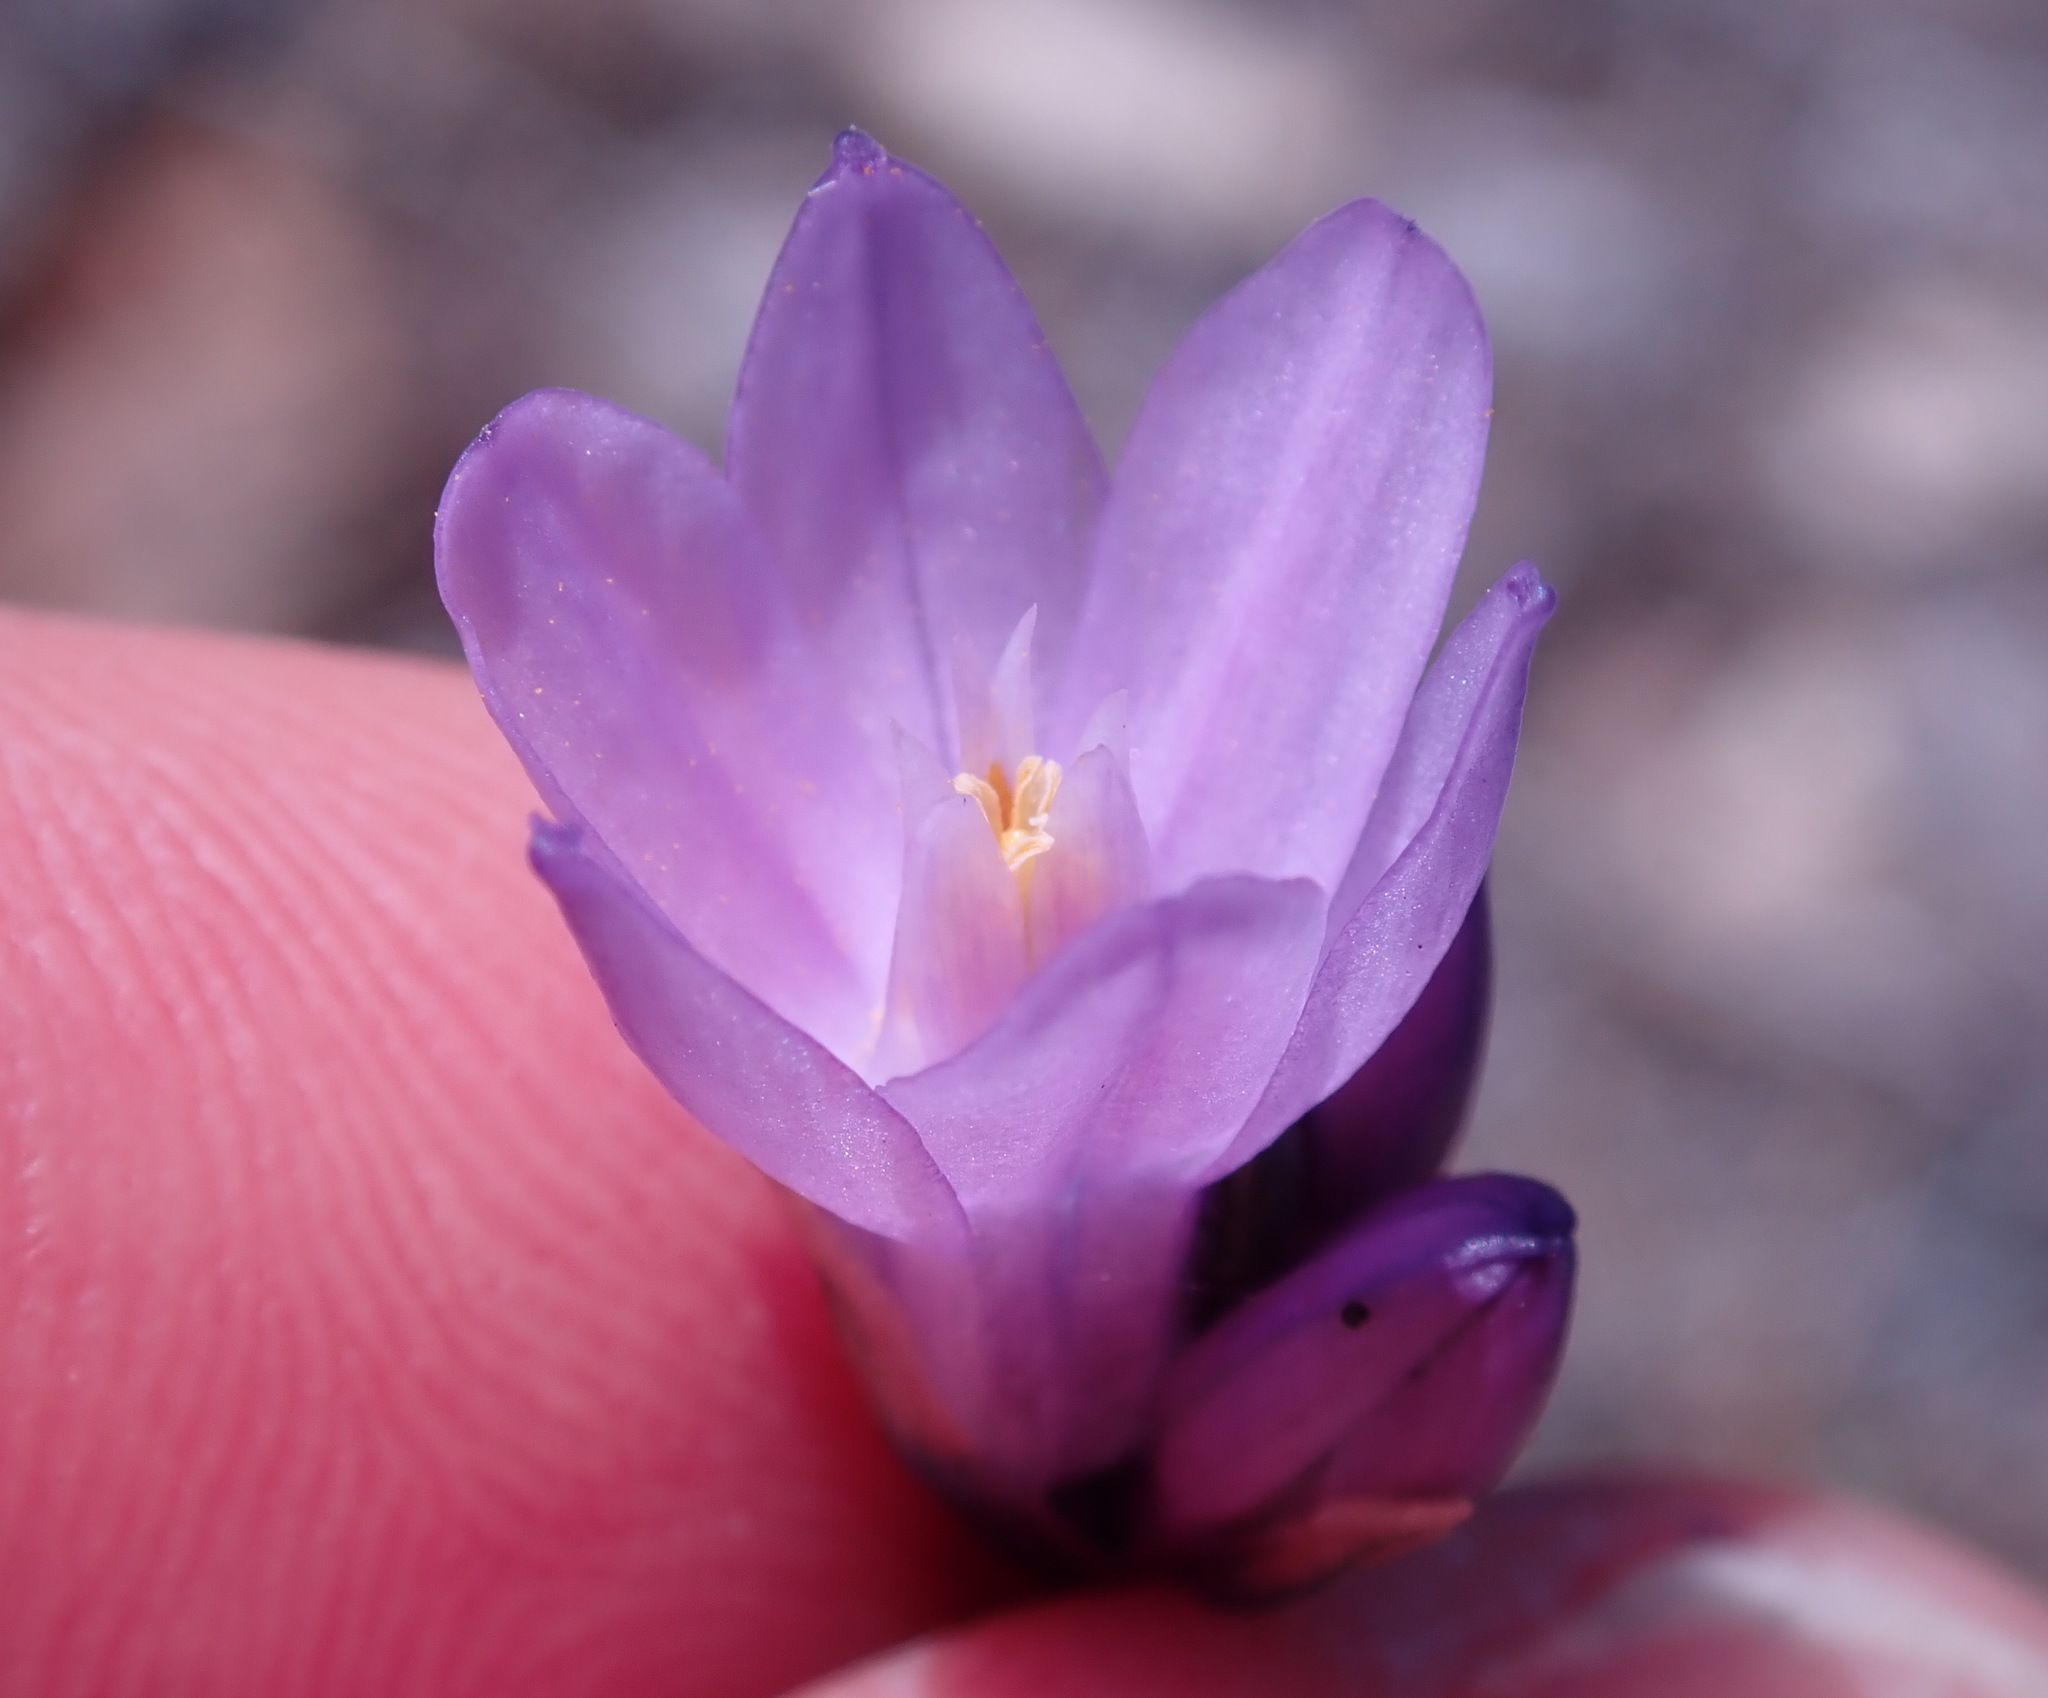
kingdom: Plantae
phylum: Tracheophyta
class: Liliopsida
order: Asparagales
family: Asparagaceae
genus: Dipterostemon
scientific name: Dipterostemon capitatus
